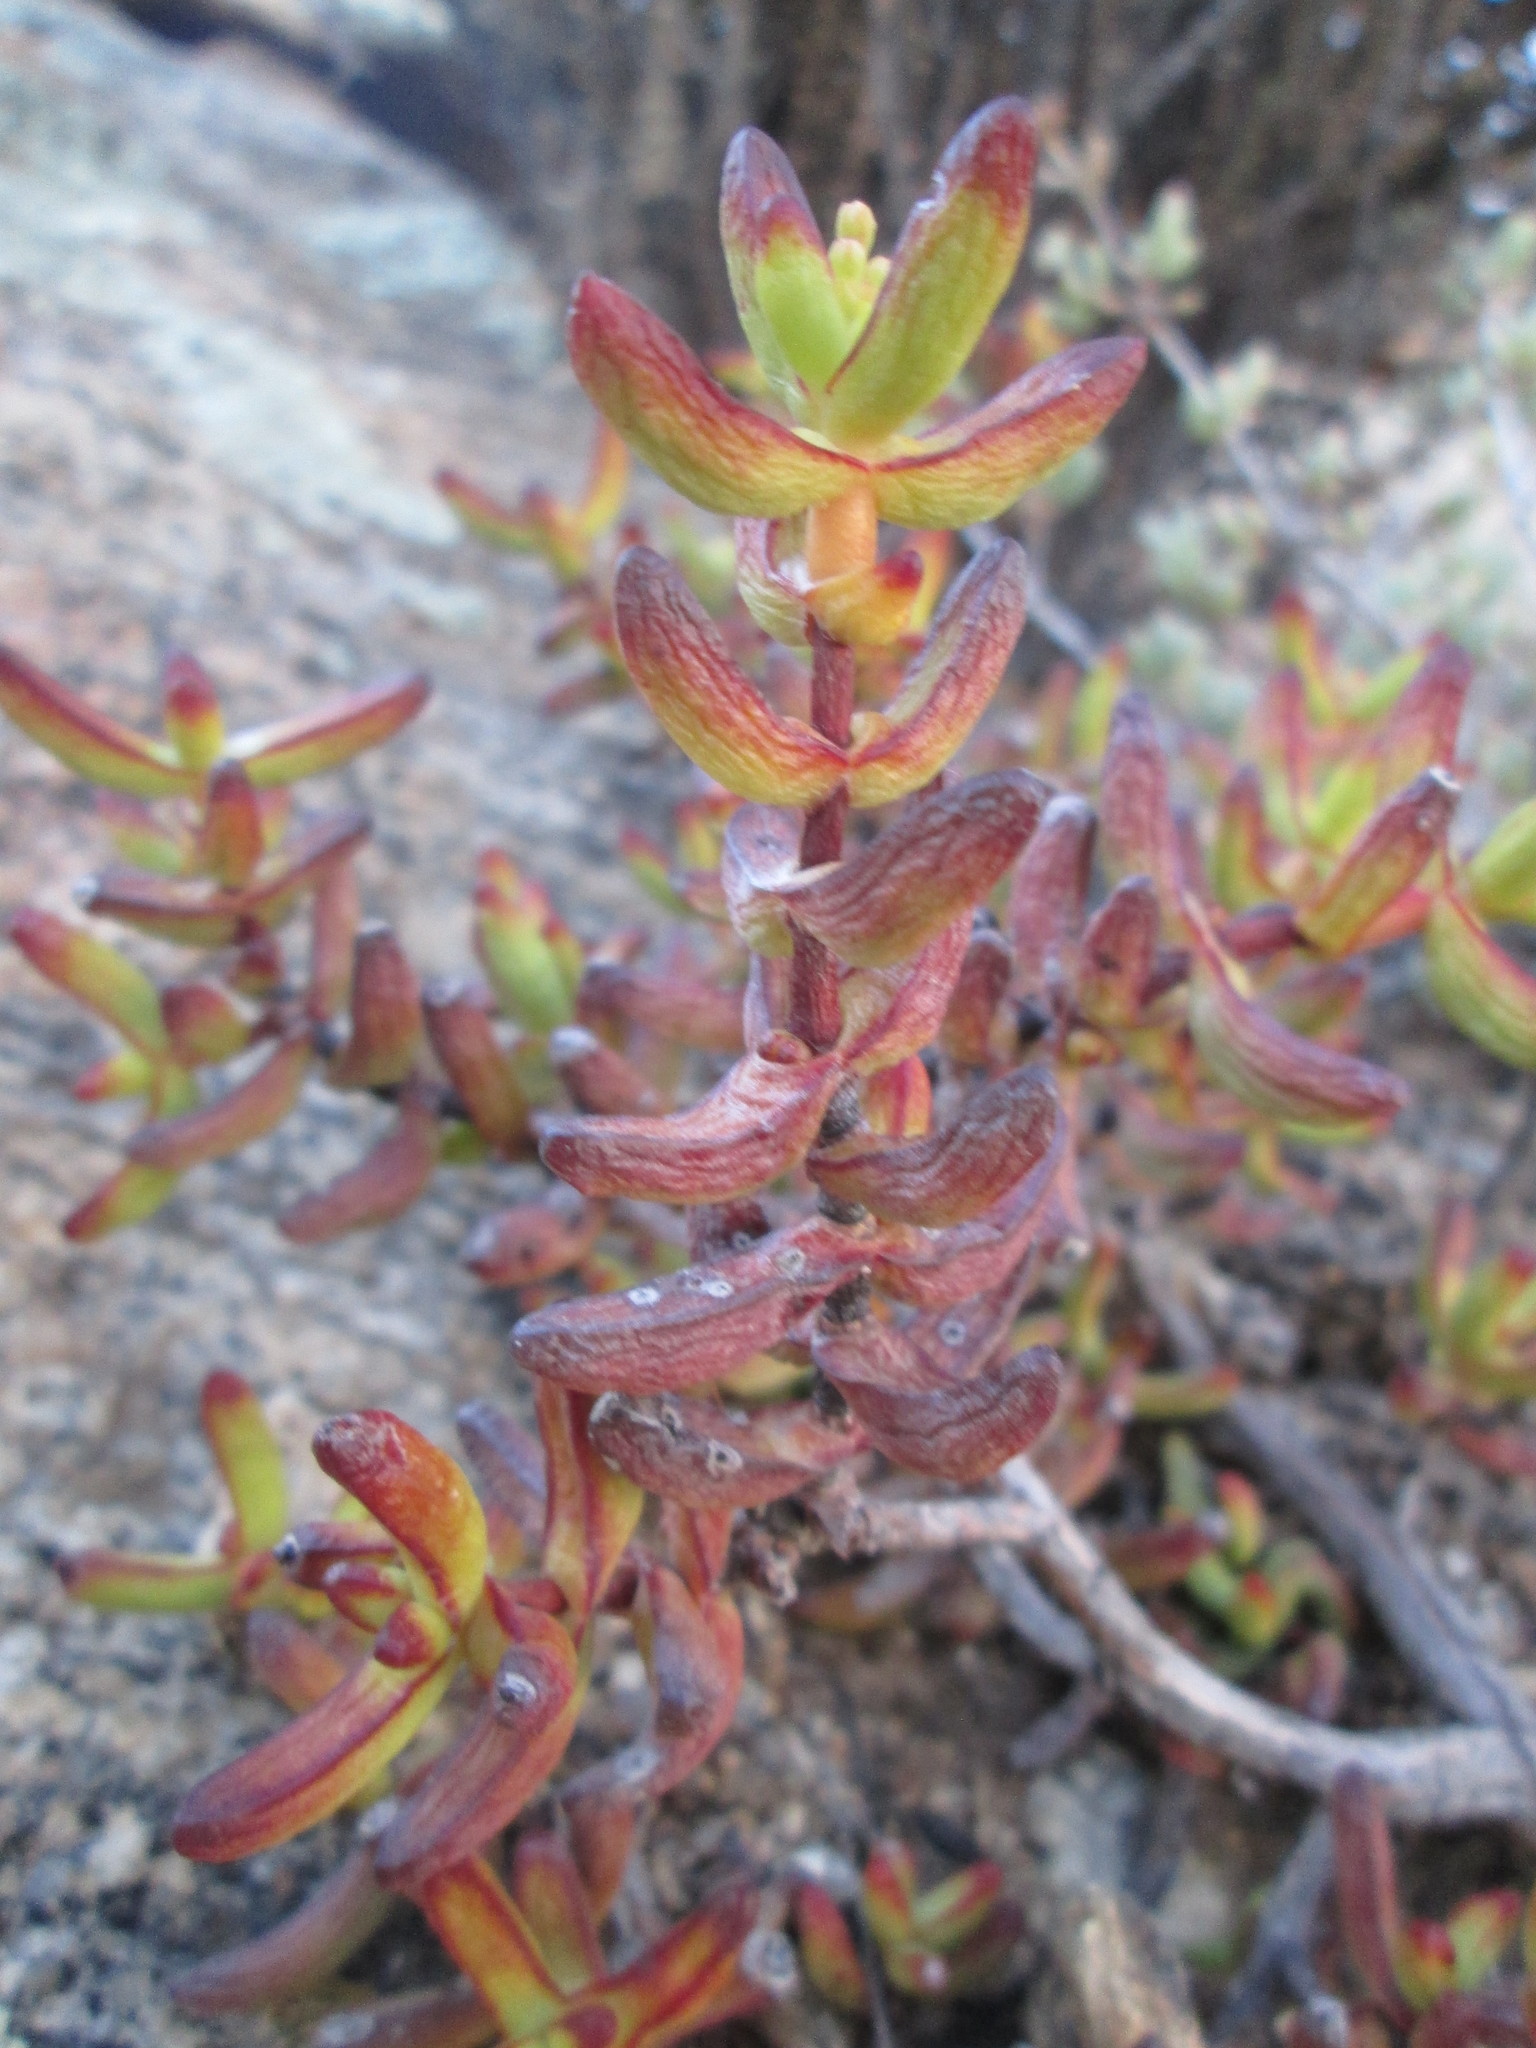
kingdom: Plantae
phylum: Tracheophyta
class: Magnoliopsida
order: Saxifragales
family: Crassulaceae
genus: Crassula
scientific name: Crassula brevifolia
